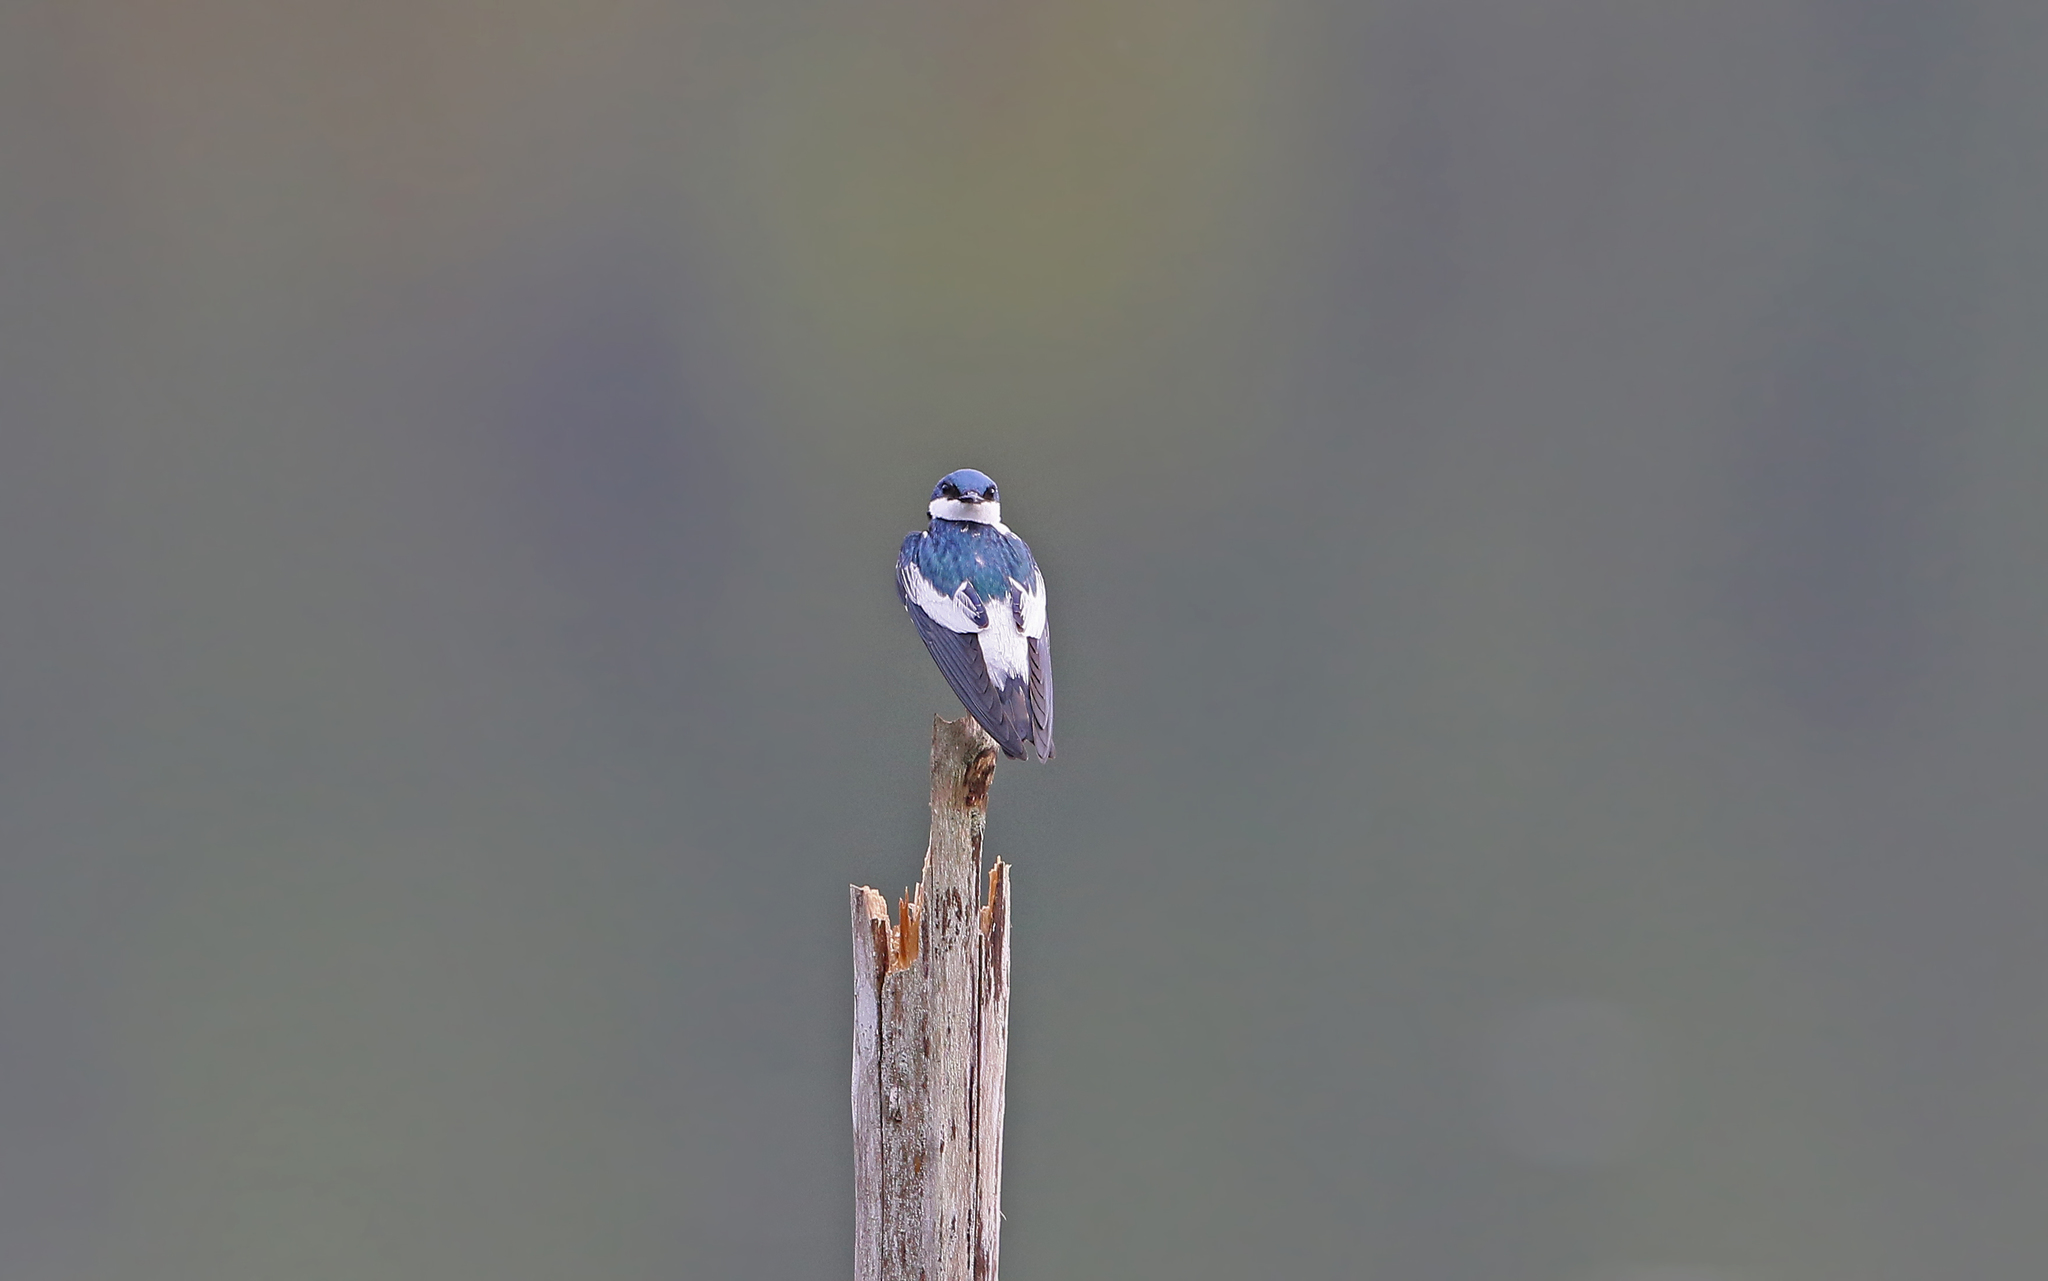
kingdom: Animalia
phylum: Chordata
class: Aves
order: Passeriformes
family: Hirundinidae
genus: Tachycineta
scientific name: Tachycineta albiventer
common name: White-winged swallow
